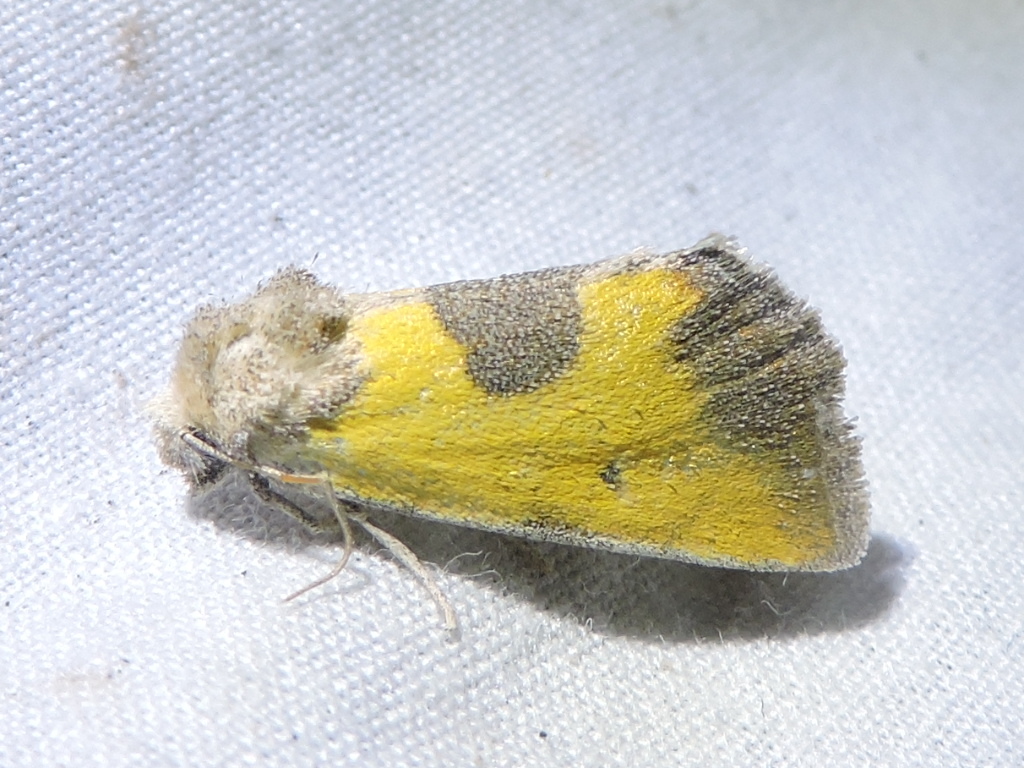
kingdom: Animalia
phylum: Arthropoda
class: Insecta
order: Lepidoptera
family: Noctuidae
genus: Stiria
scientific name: Stiria dyari
